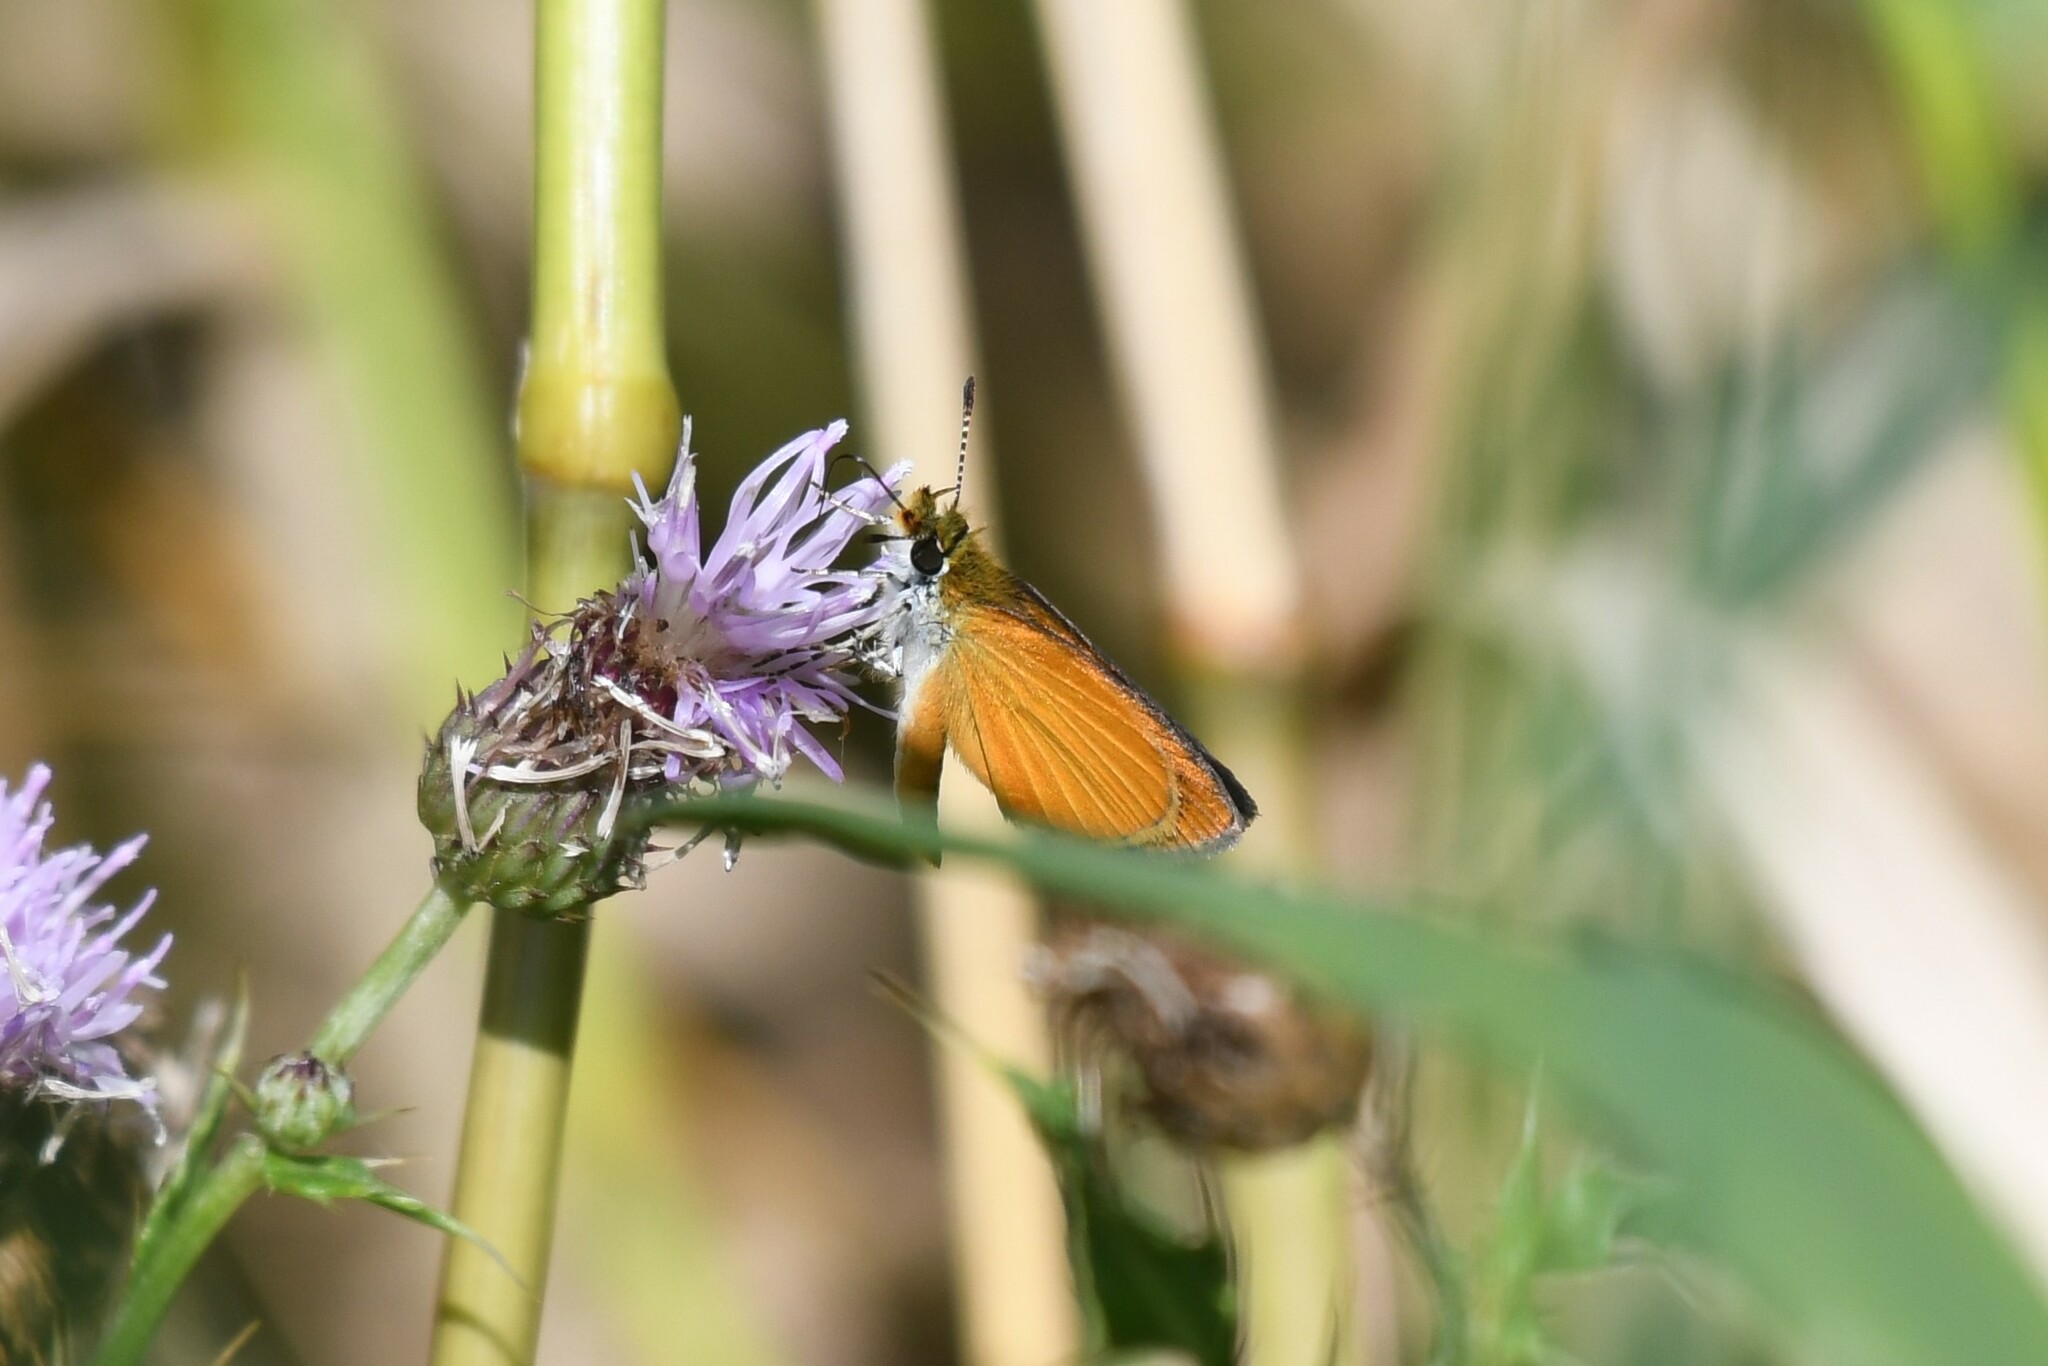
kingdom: Animalia
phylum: Arthropoda
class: Insecta
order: Lepidoptera
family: Hesperiidae
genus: Ancyloxypha
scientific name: Ancyloxypha numitor
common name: Least skipper
